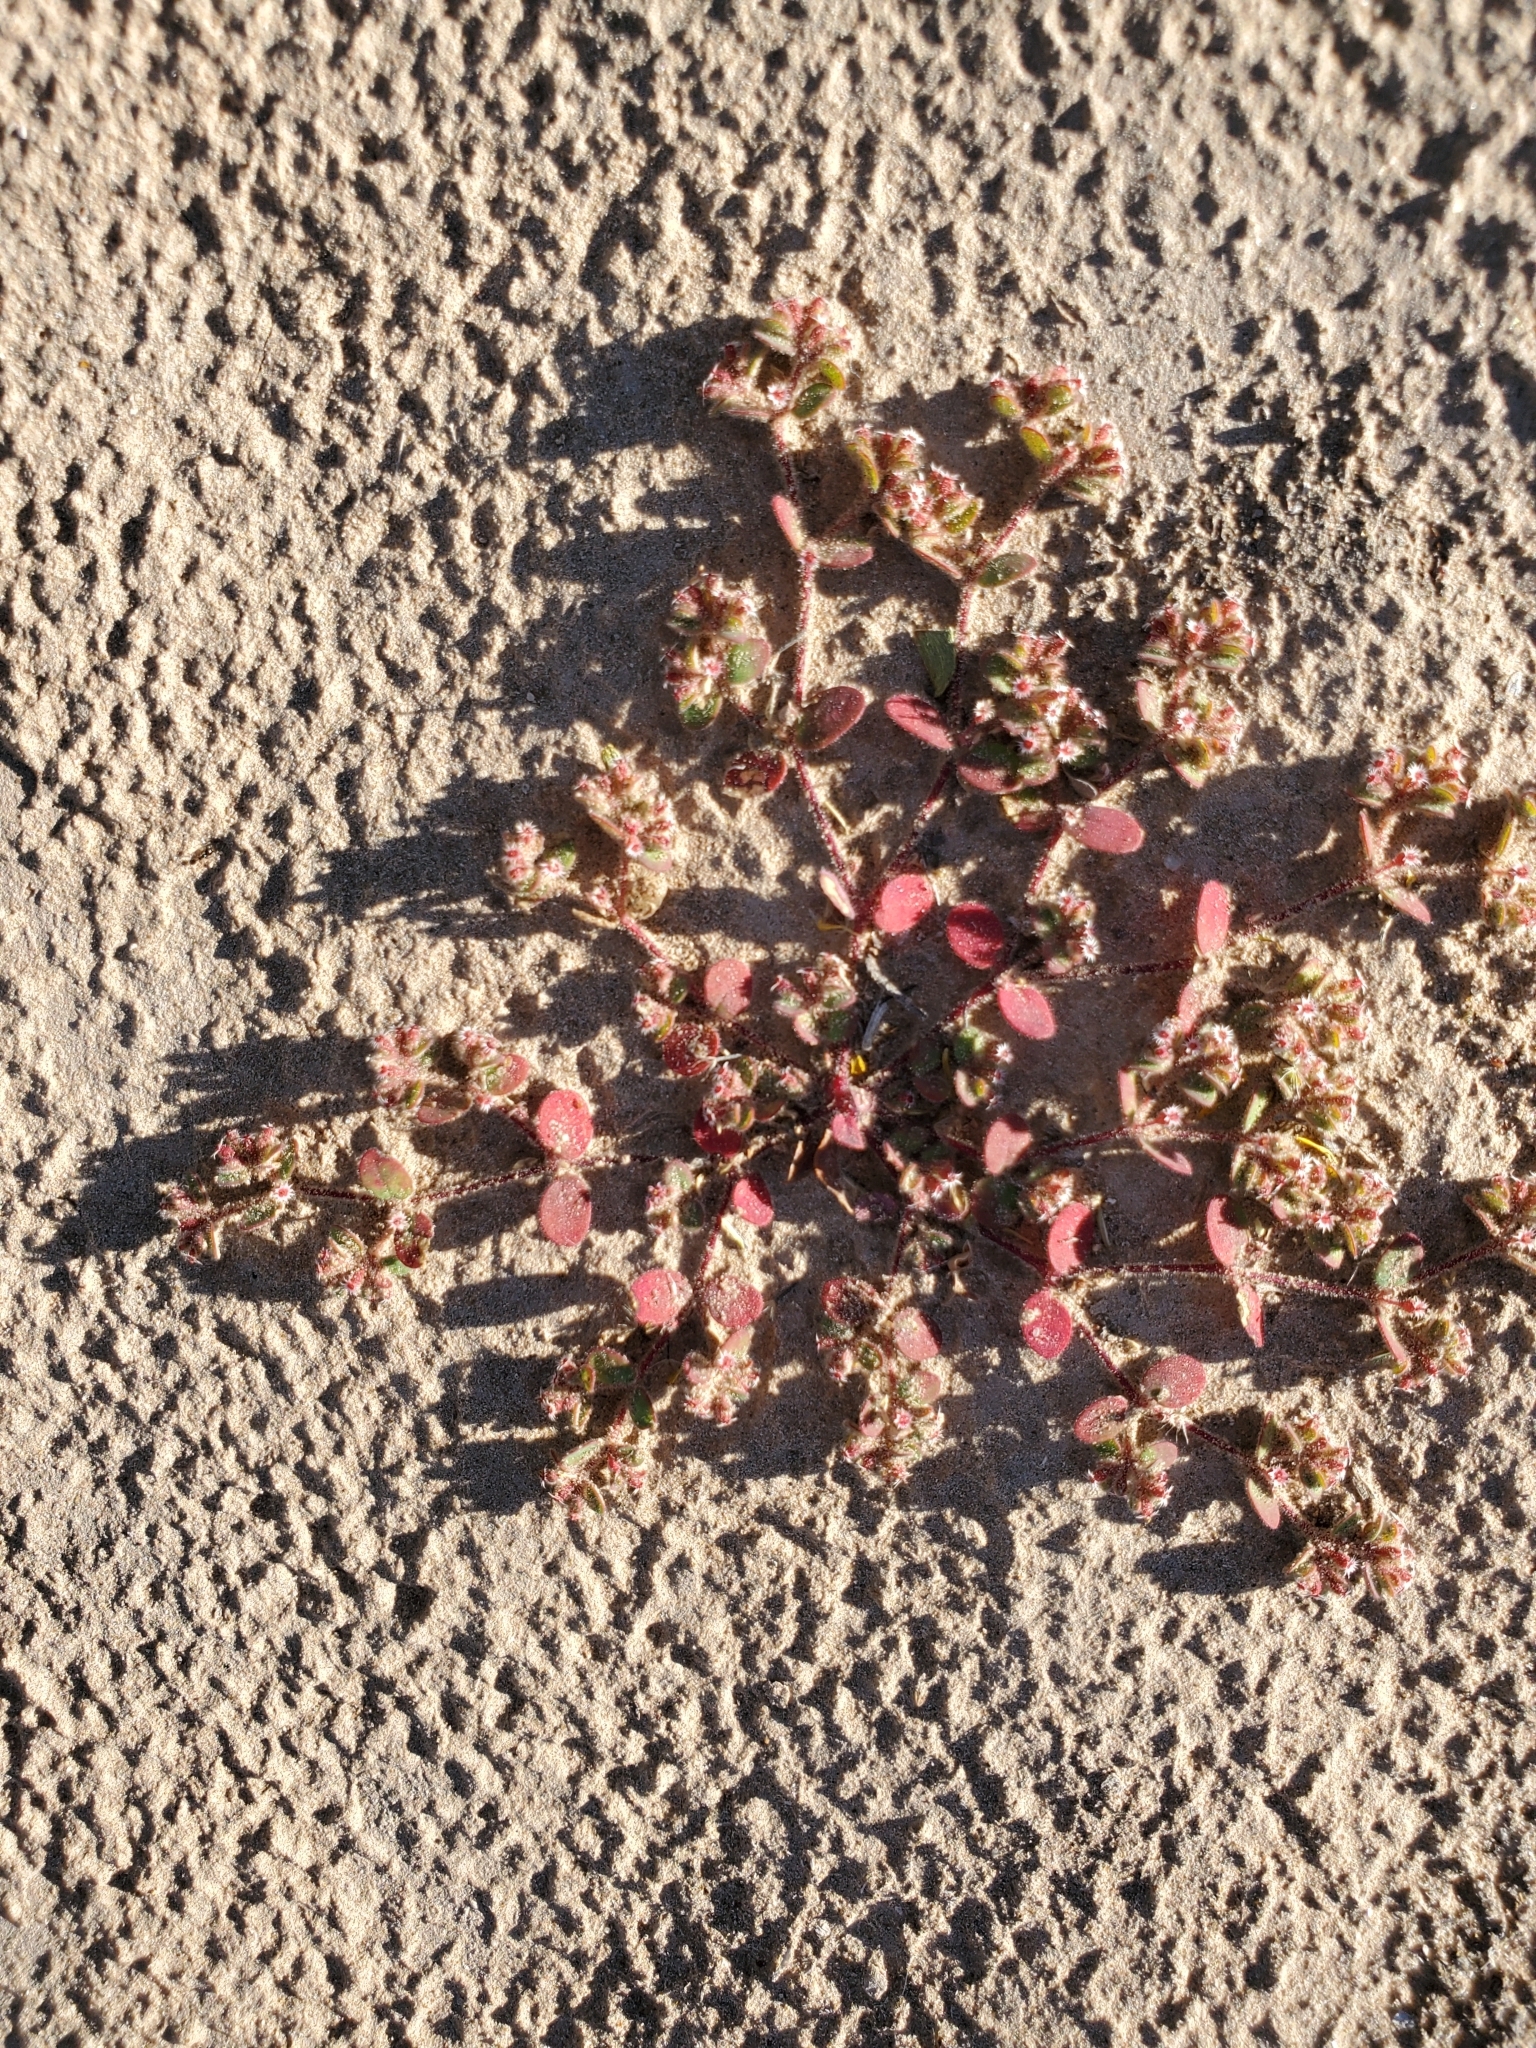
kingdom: Plantae
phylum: Tracheophyta
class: Magnoliopsida
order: Malpighiales
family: Euphorbiaceae
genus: Euphorbia
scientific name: Euphorbia setiloba
